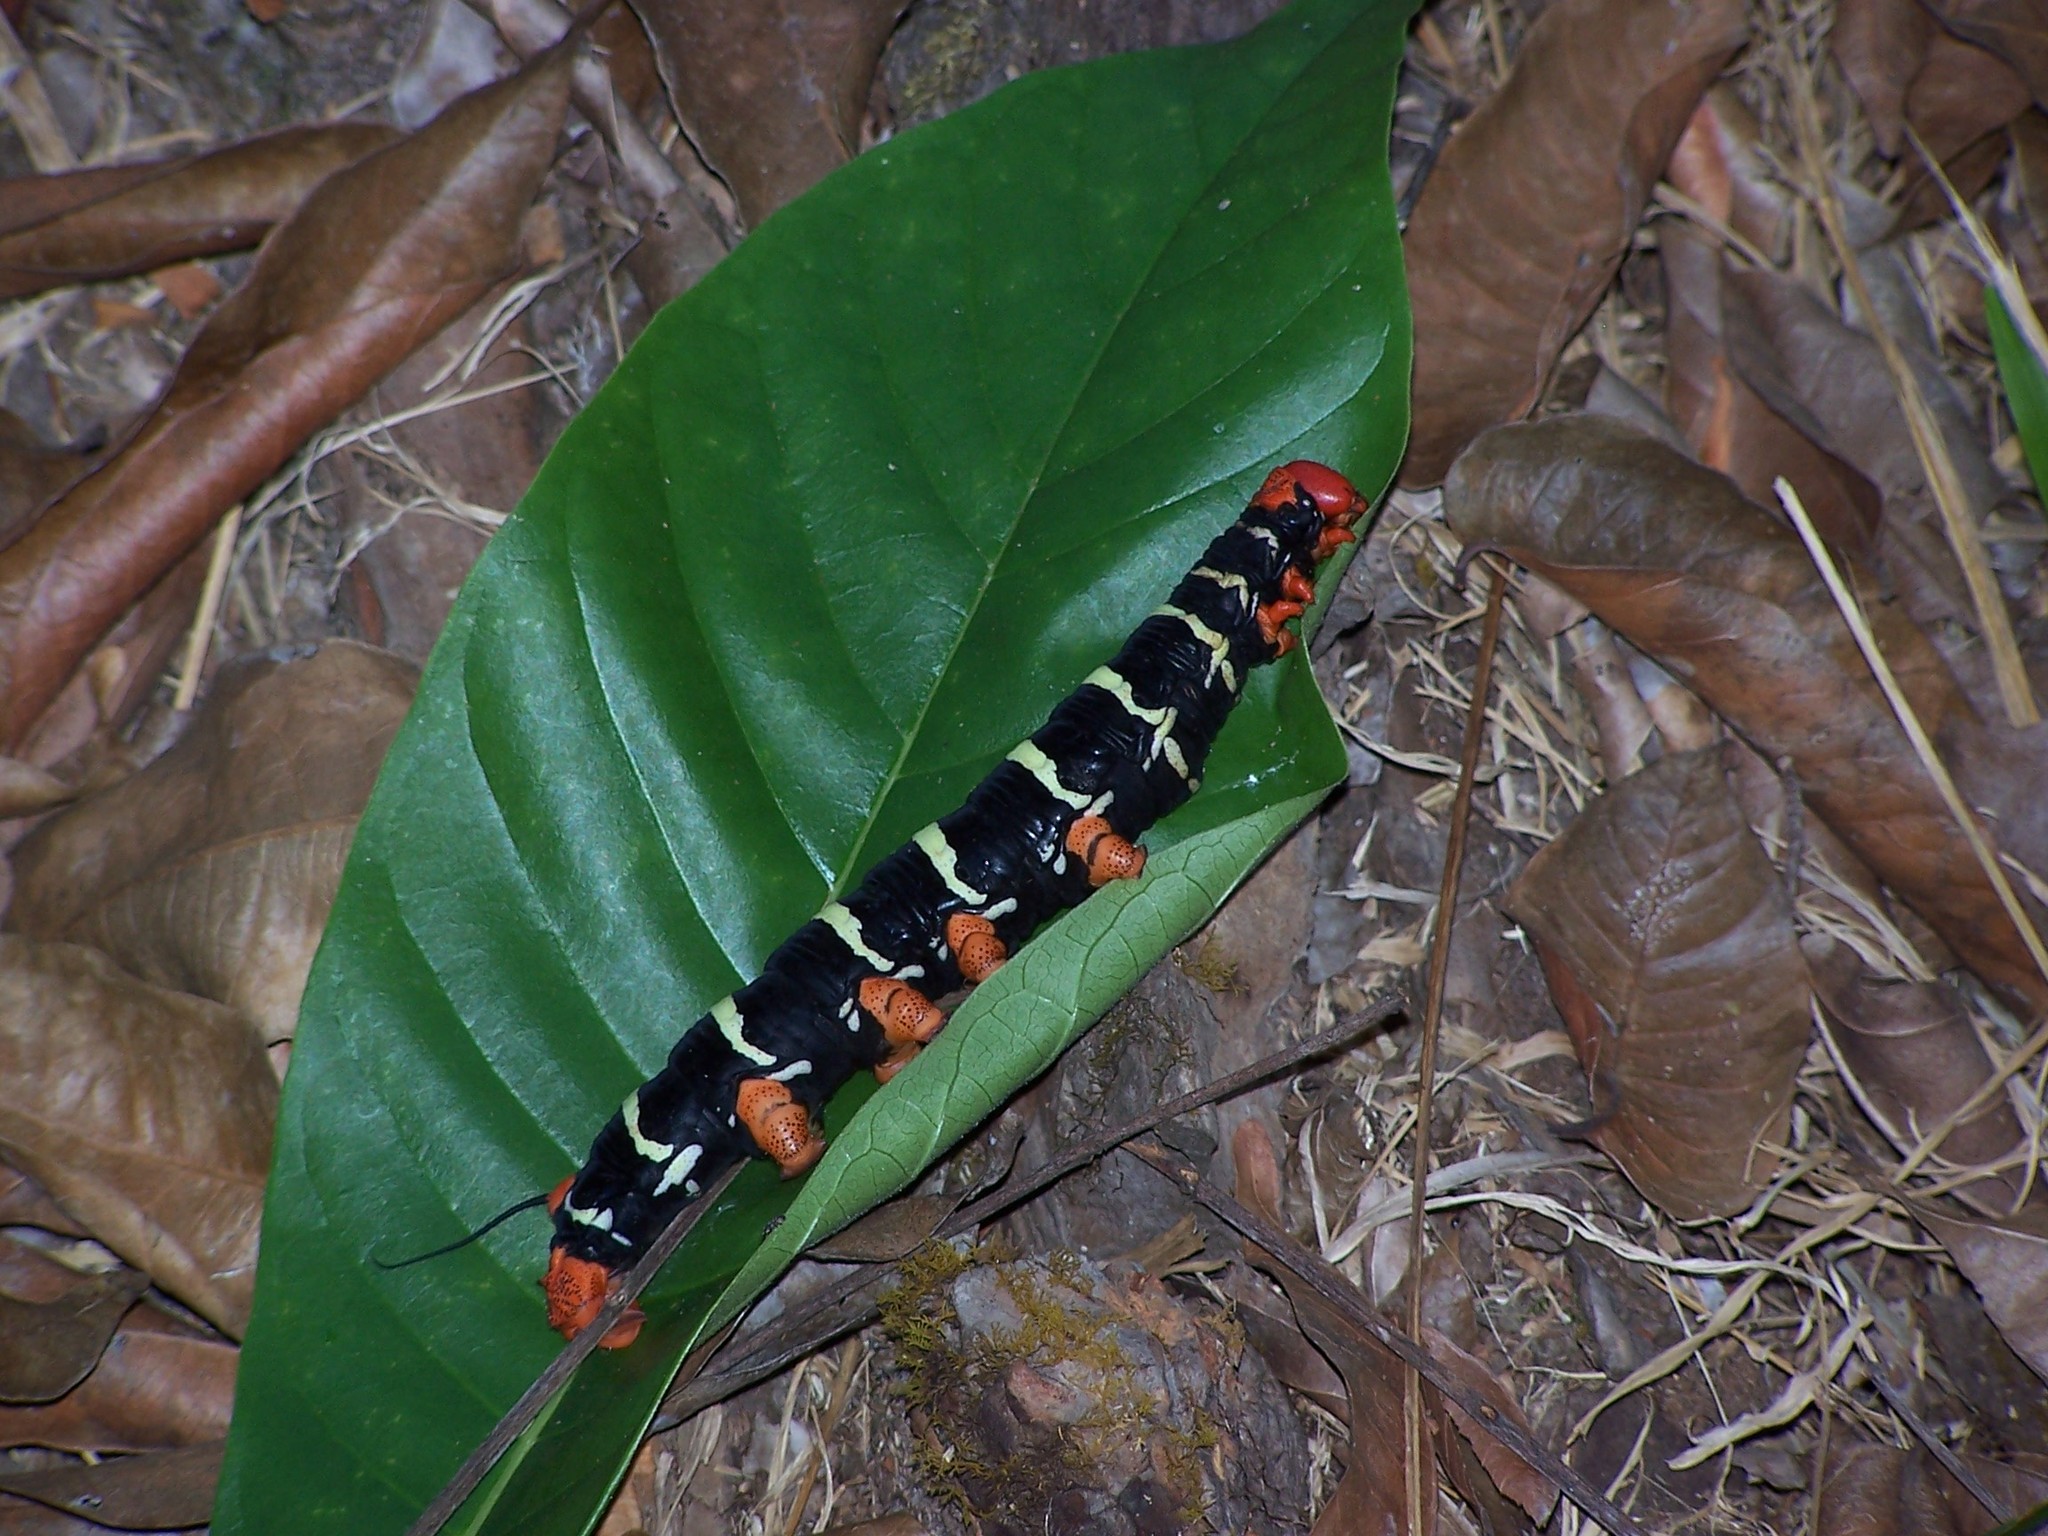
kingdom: Animalia
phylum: Arthropoda
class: Insecta
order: Lepidoptera
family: Sphingidae
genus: Pseudosphinx
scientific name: Pseudosphinx tetrio
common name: Tetrio sphinx
